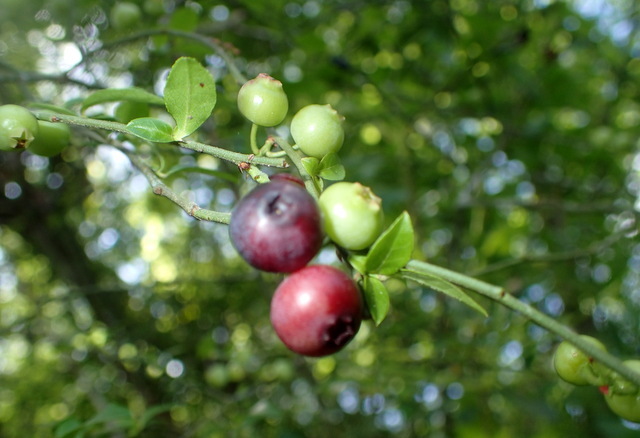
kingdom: Plantae
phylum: Tracheophyta
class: Magnoliopsida
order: Ericales
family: Ericaceae
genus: Vaccinium
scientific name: Vaccinium corymbosum
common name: Blueberry
